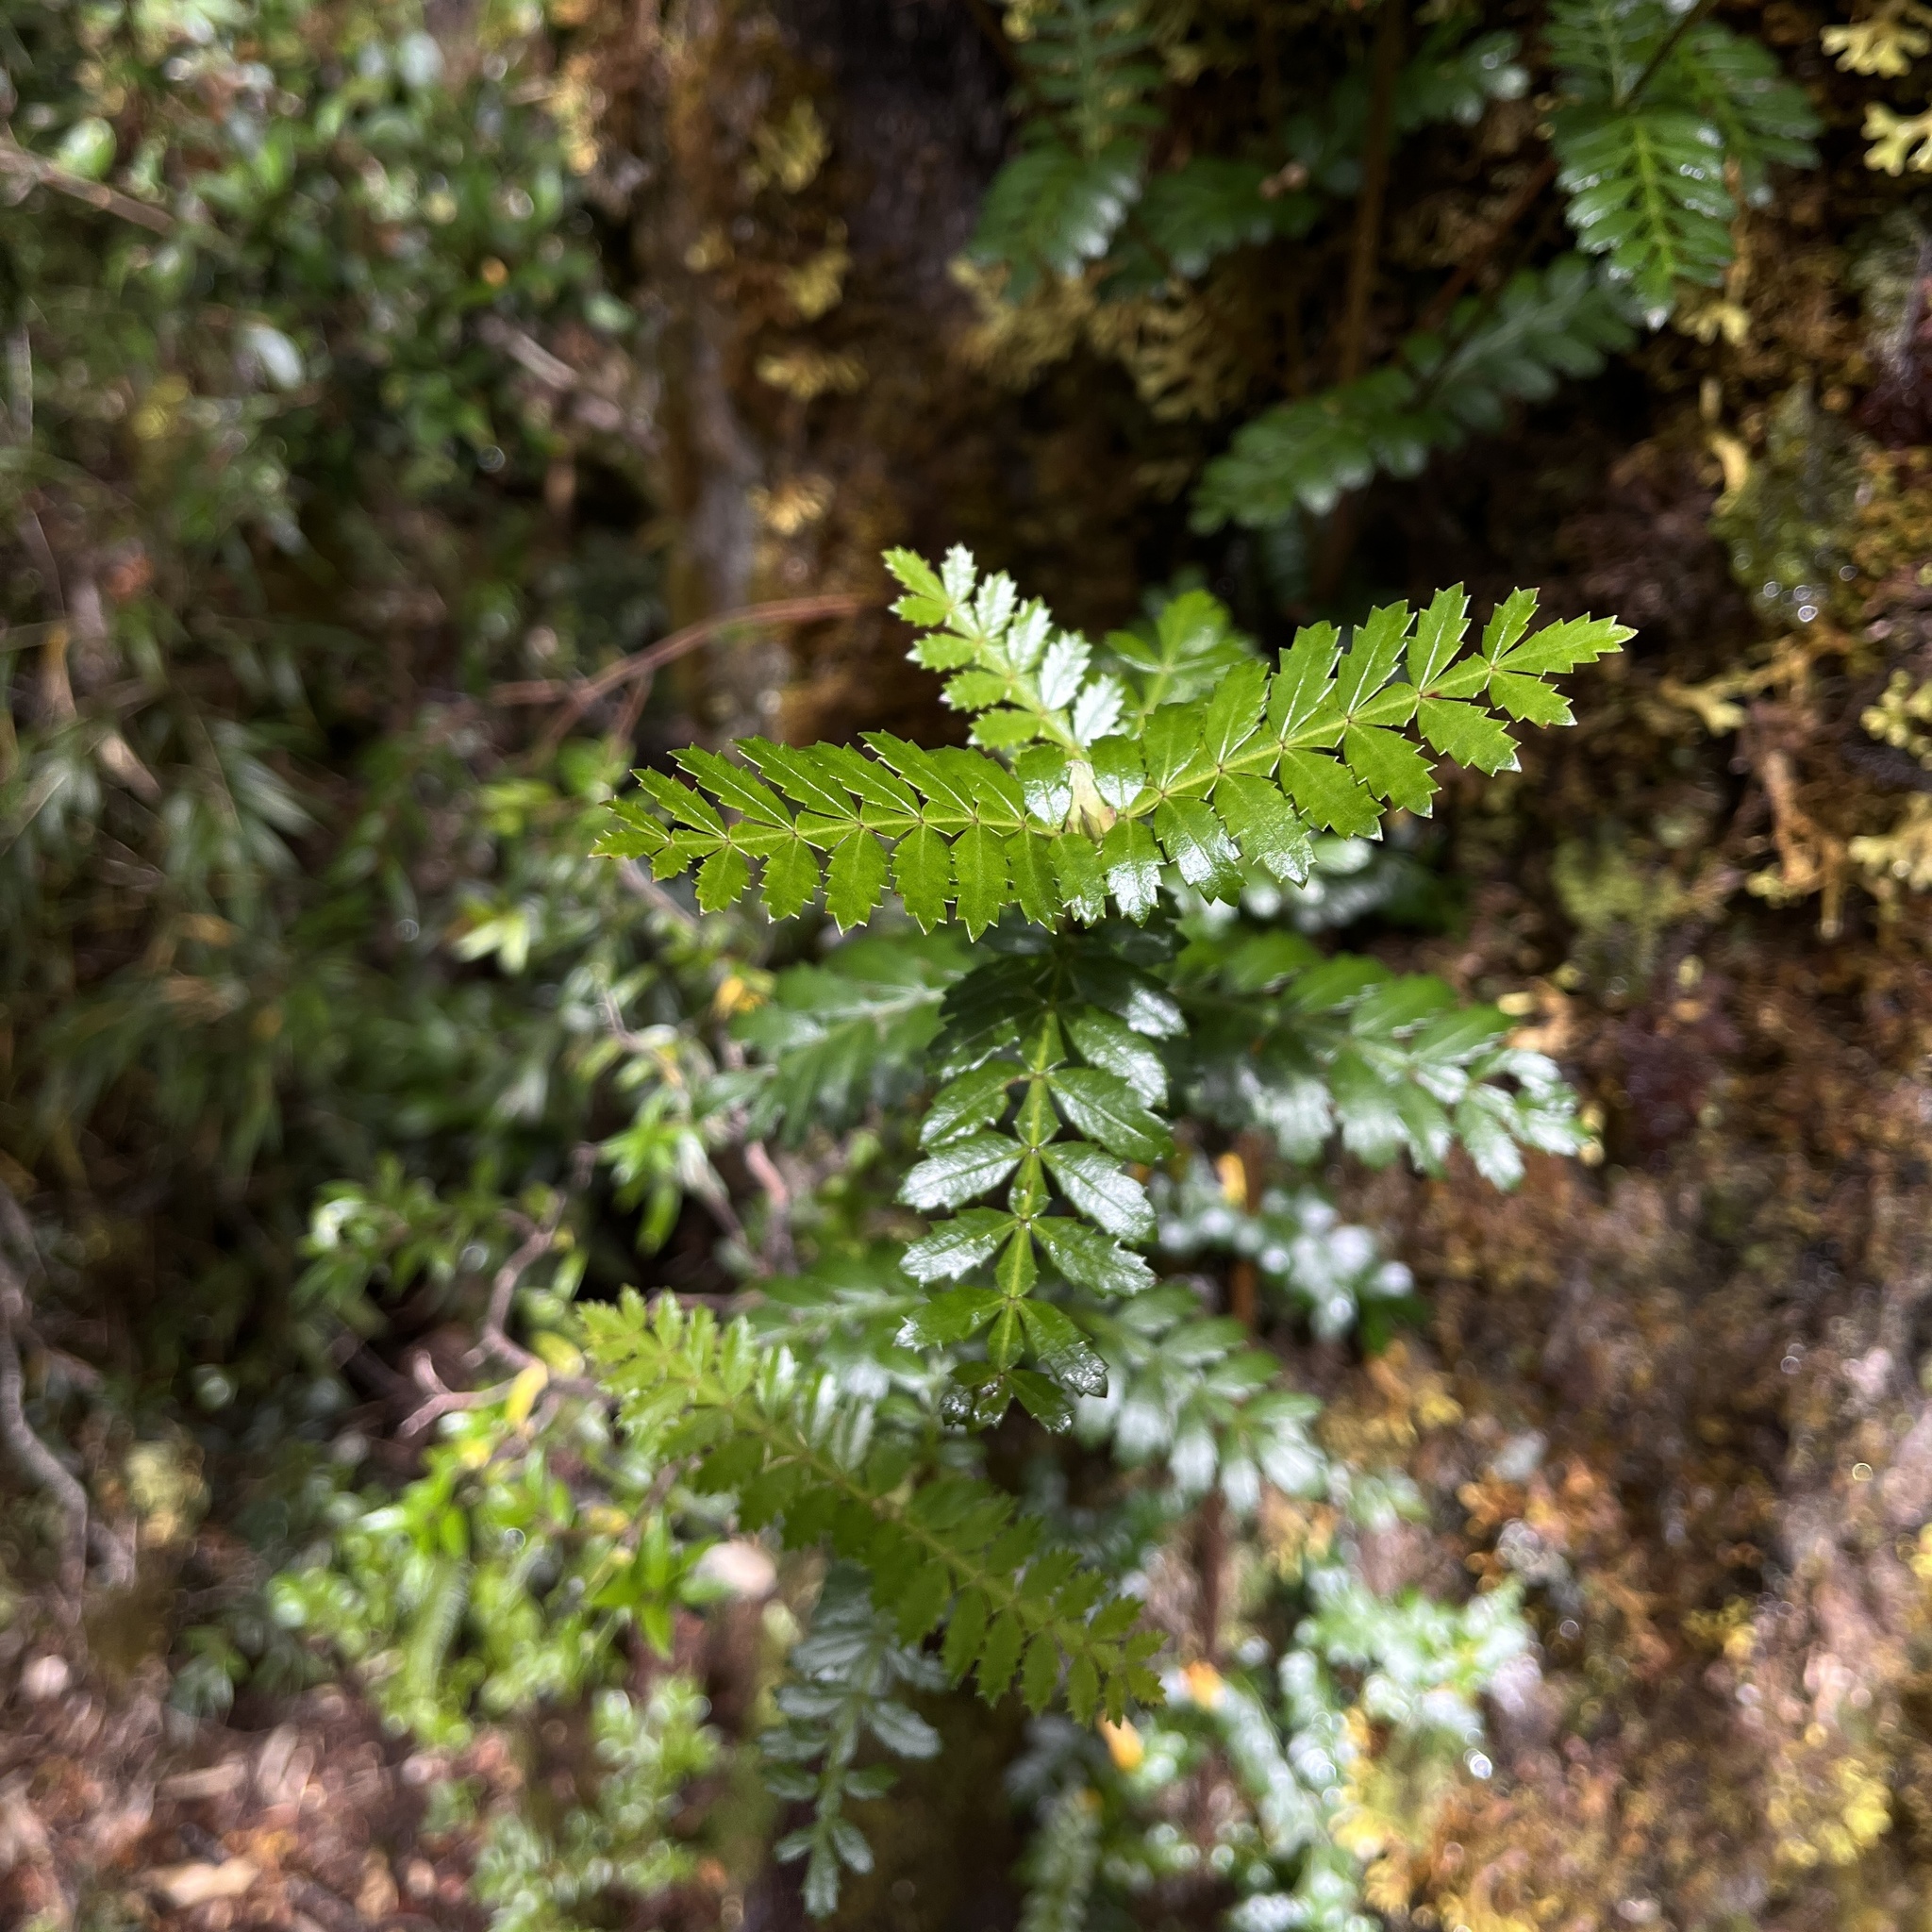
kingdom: Plantae
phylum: Tracheophyta
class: Magnoliopsida
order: Oxalidales
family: Cunoniaceae
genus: Weinmannia
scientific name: Weinmannia trichosperma
